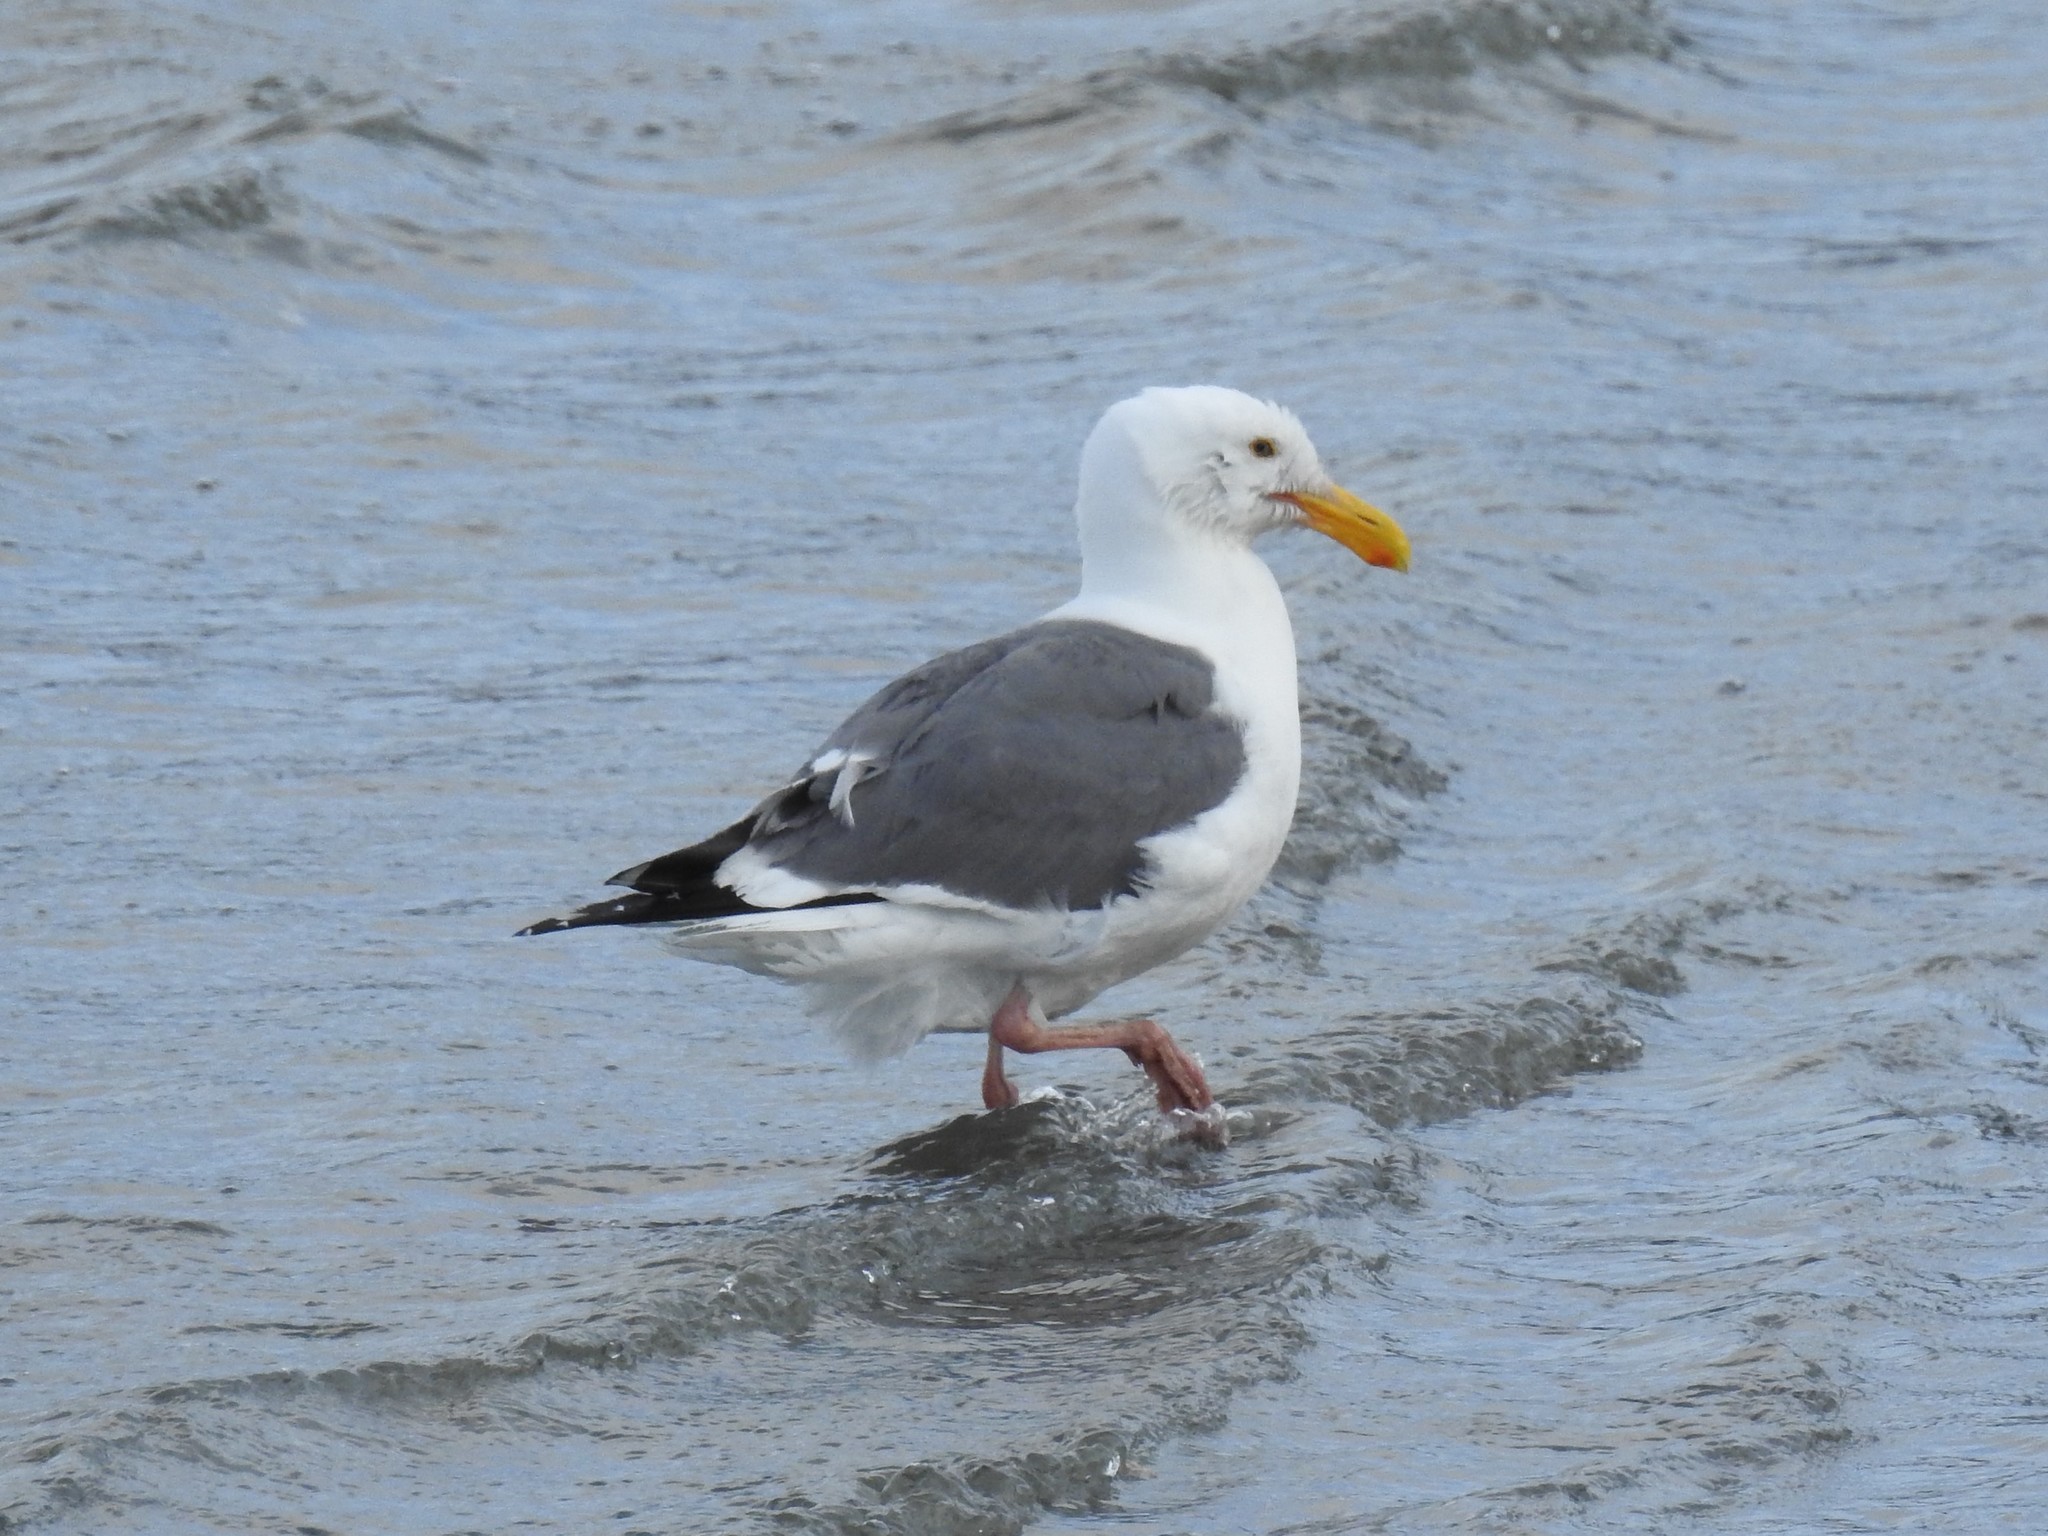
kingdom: Animalia
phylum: Chordata
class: Aves
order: Charadriiformes
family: Laridae
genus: Larus
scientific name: Larus occidentalis
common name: Western gull
